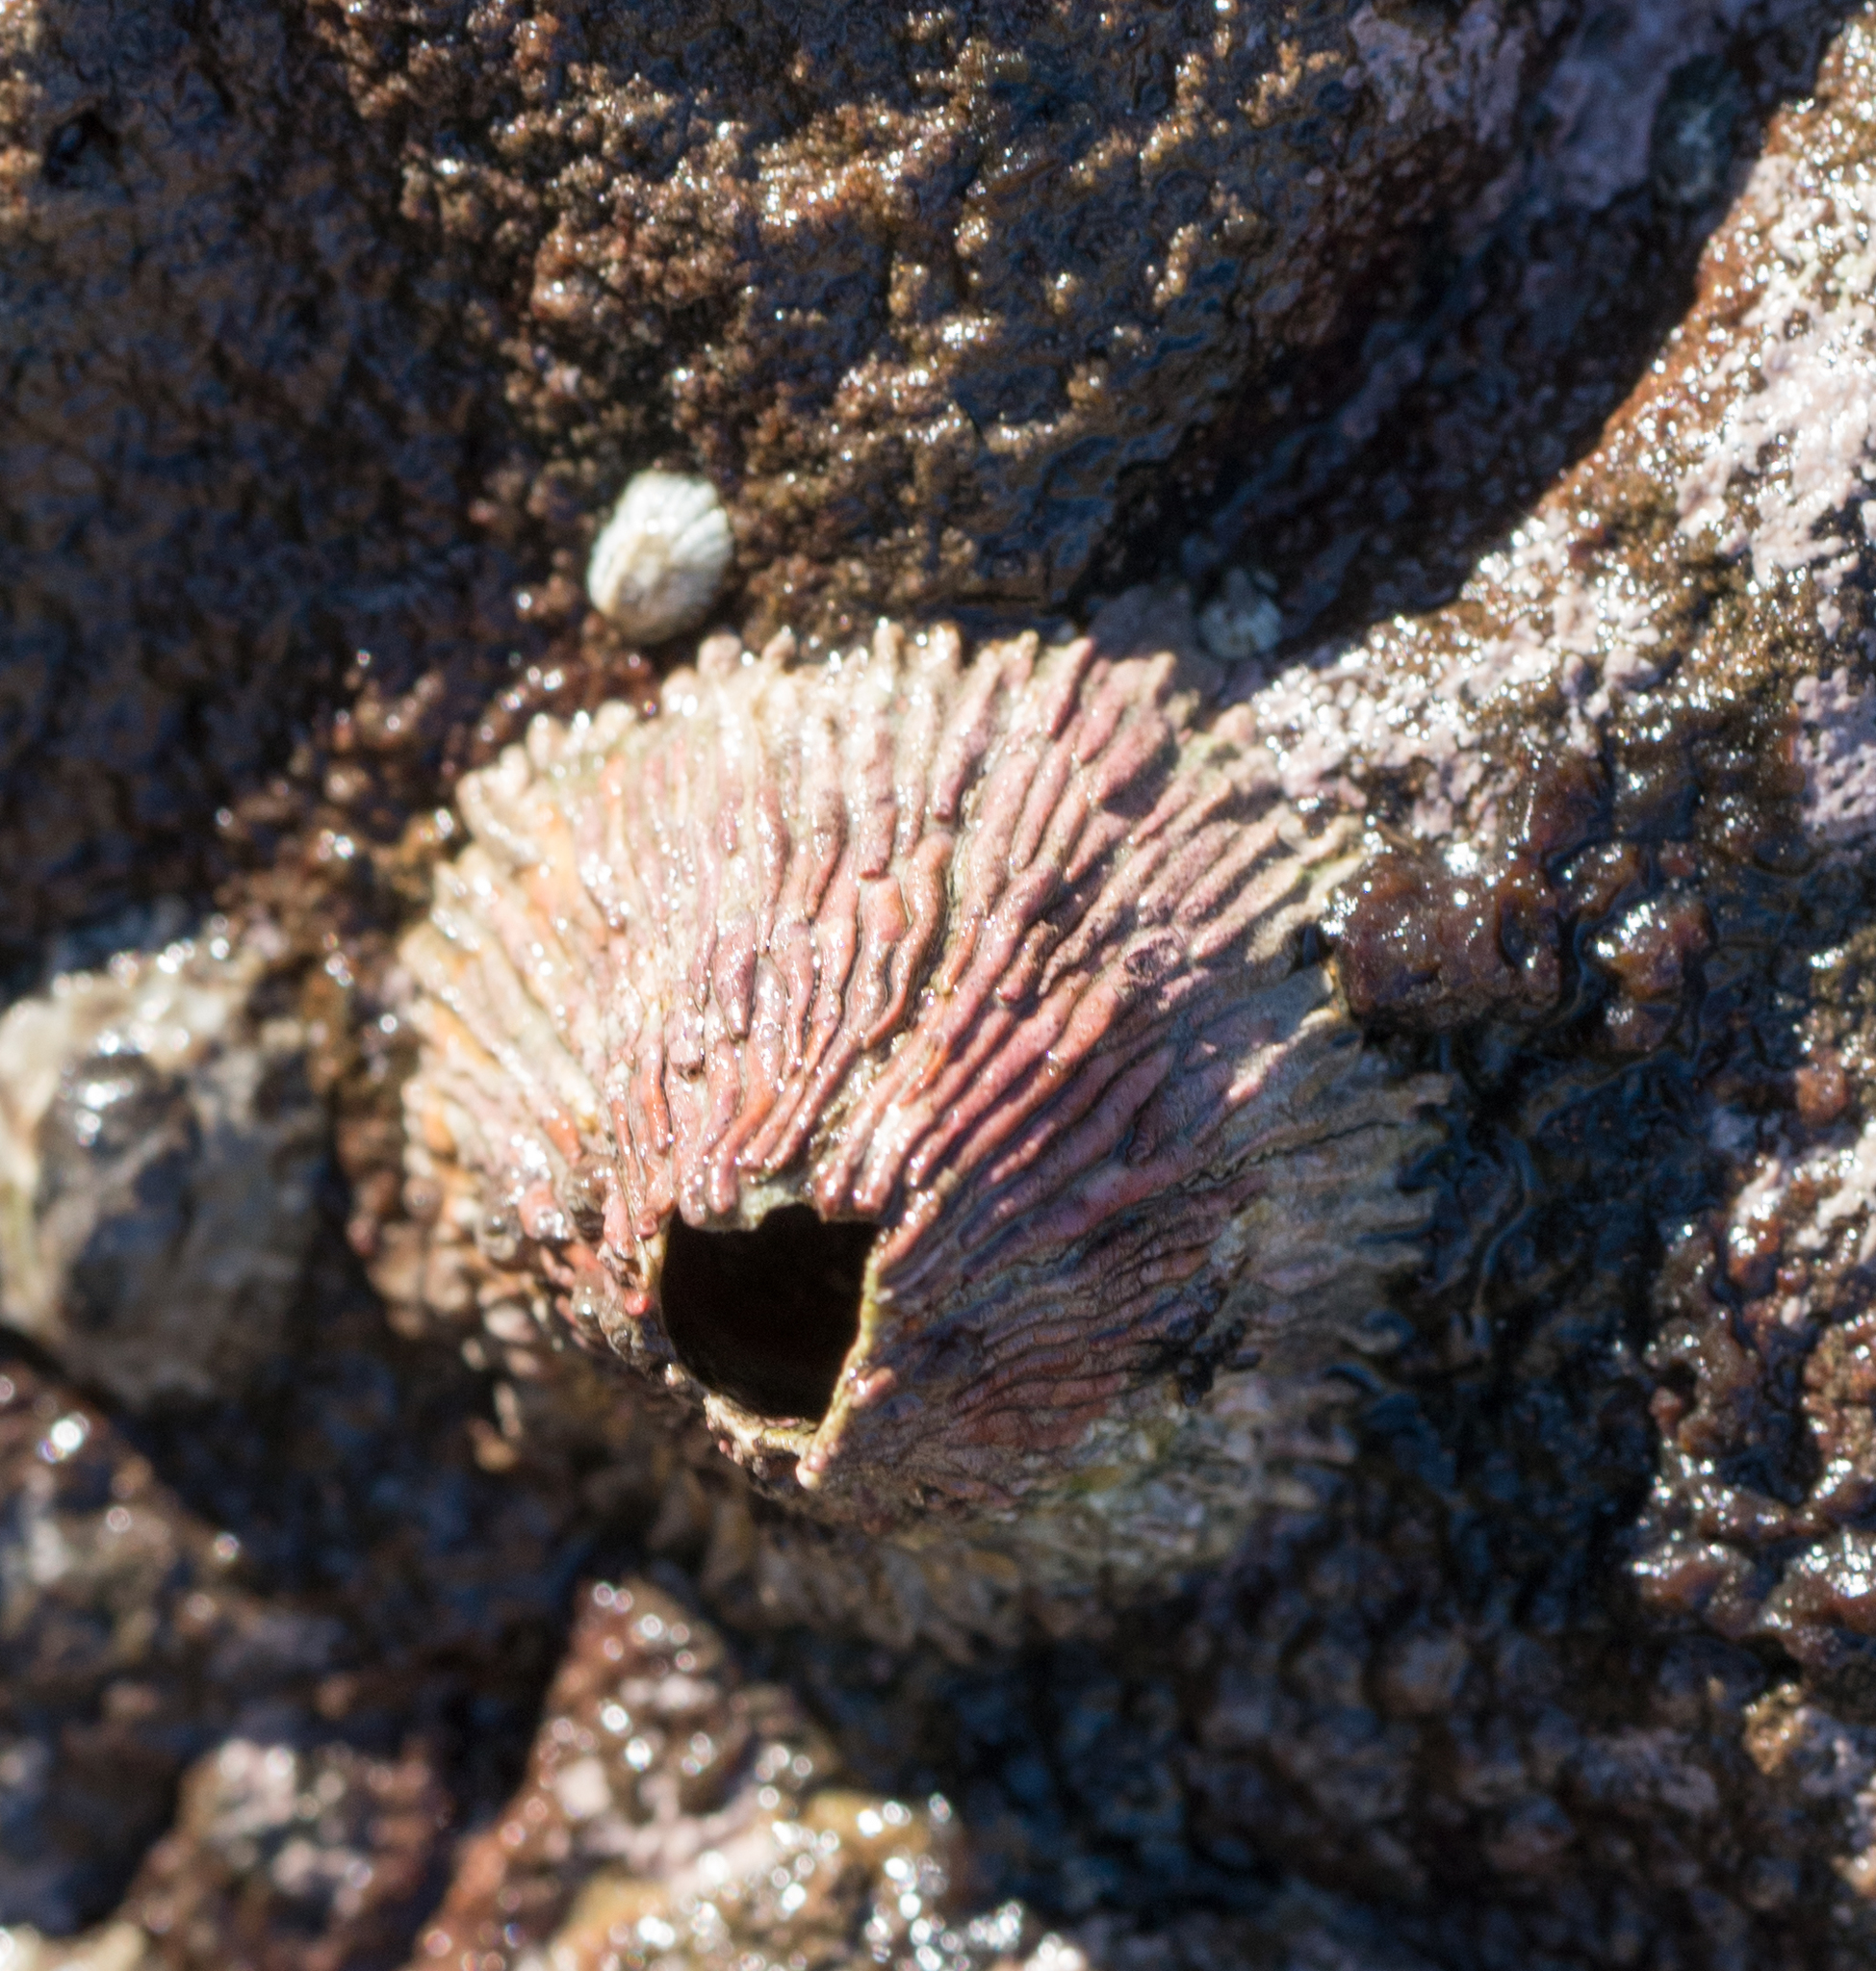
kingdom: Animalia
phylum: Arthropoda
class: Maxillopoda
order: Sessilia
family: Tetraclitidae
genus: Tetraclita
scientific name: Tetraclita rubescens
